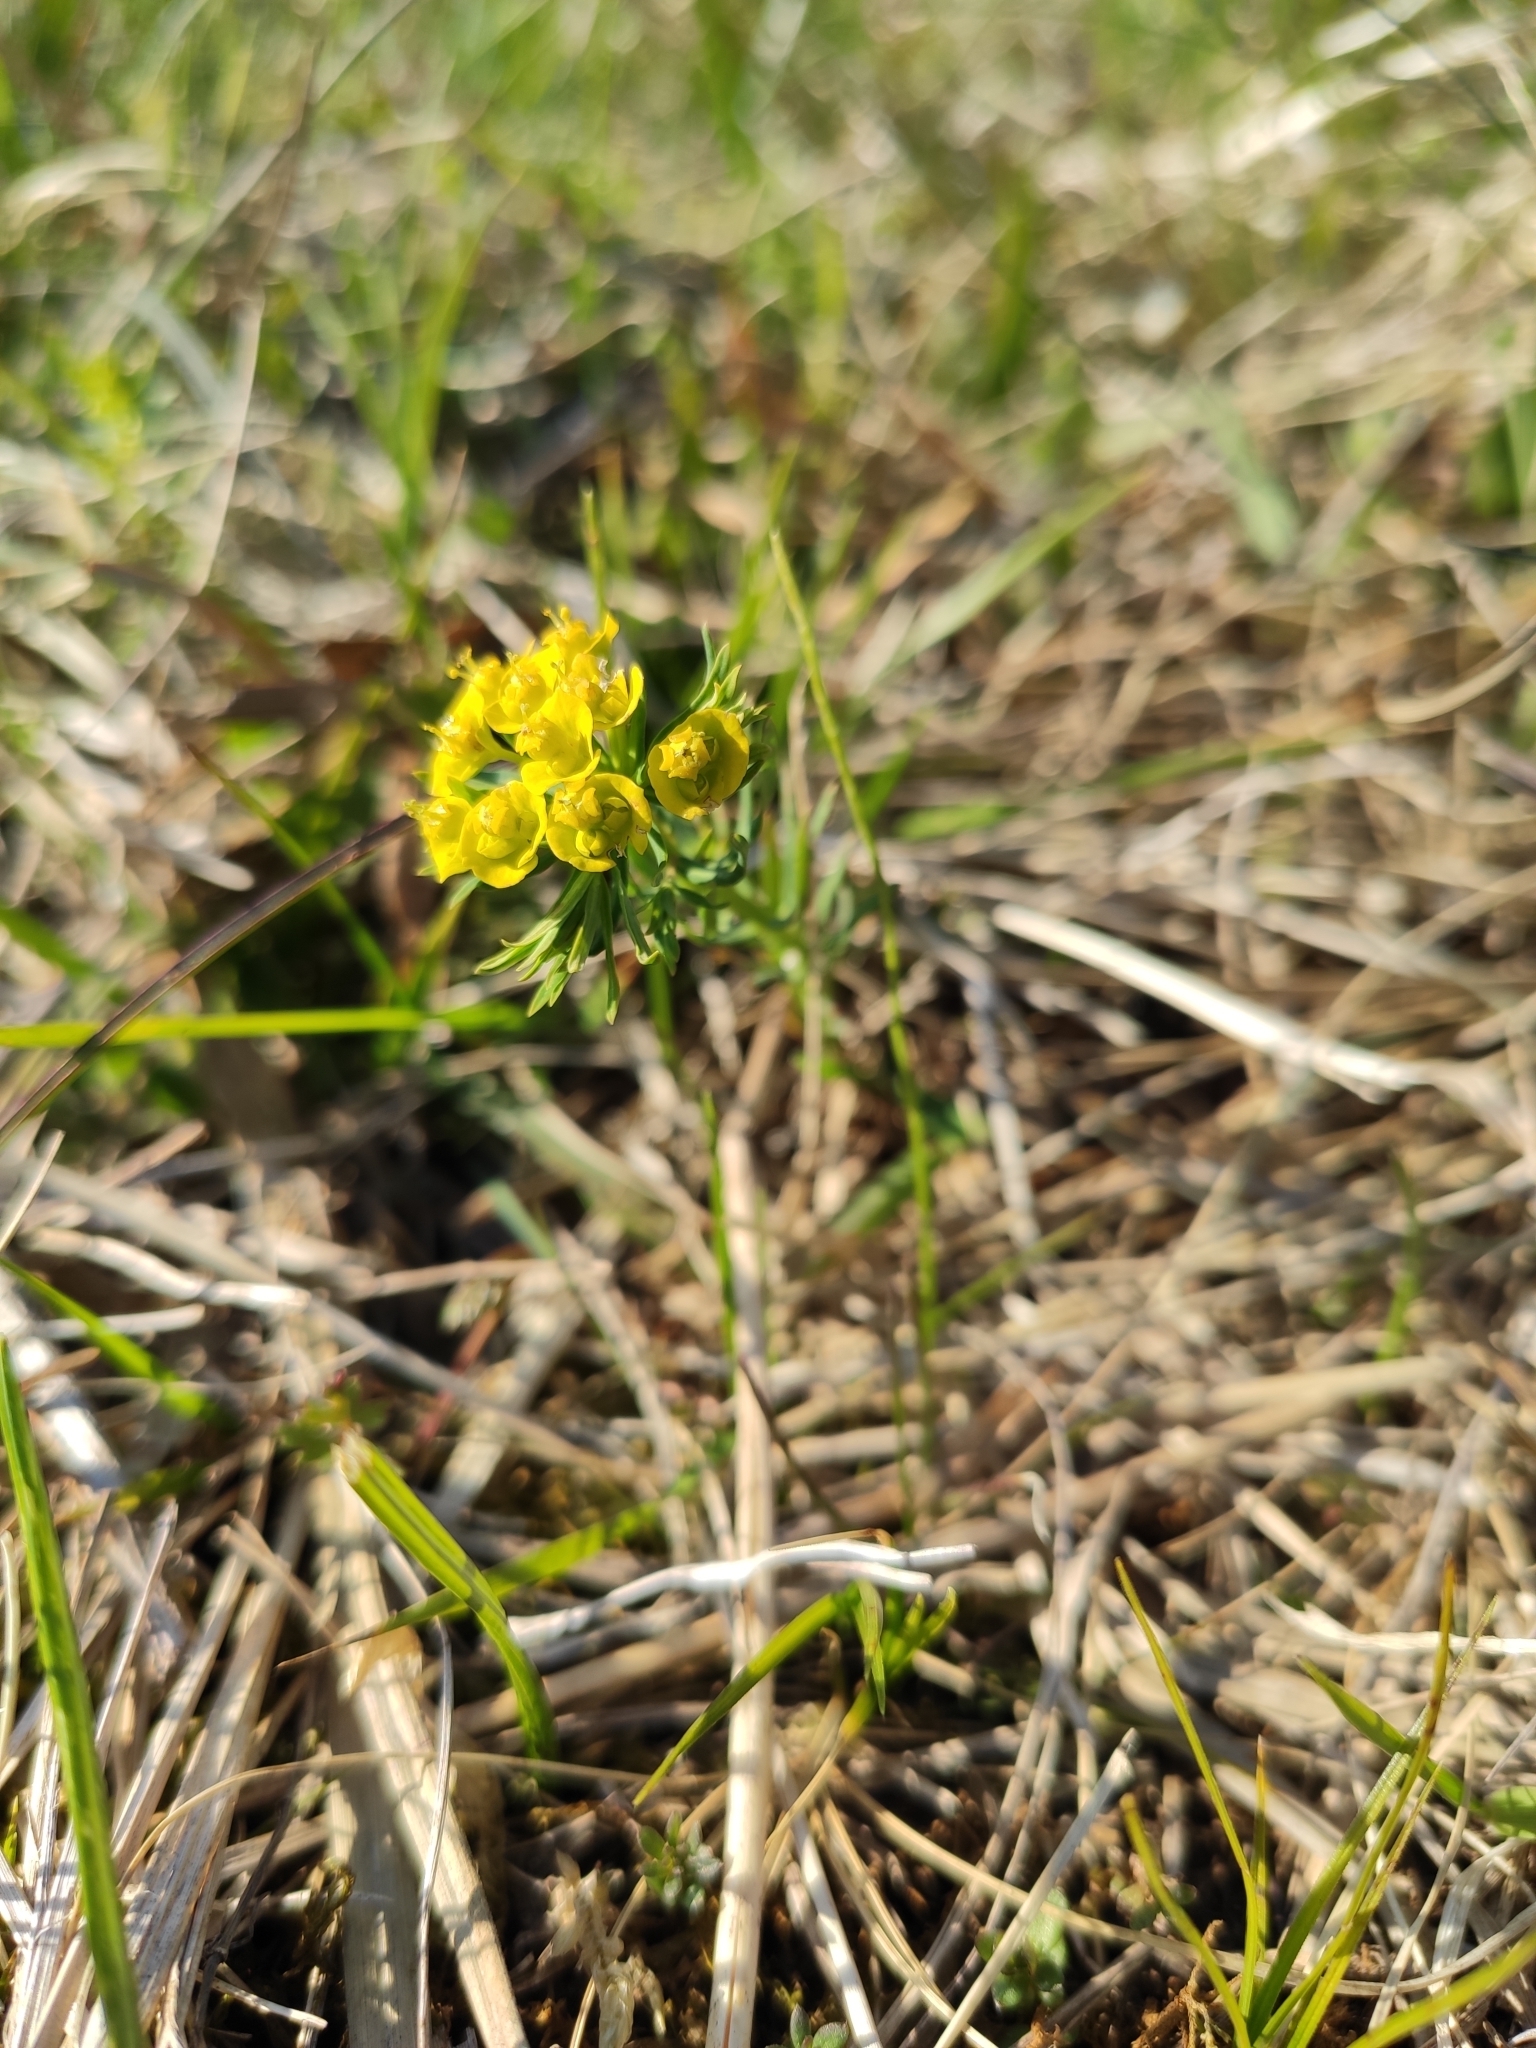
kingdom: Plantae
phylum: Tracheophyta
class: Magnoliopsida
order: Malpighiales
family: Euphorbiaceae
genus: Euphorbia
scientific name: Euphorbia cyparissias
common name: Cypress spurge
